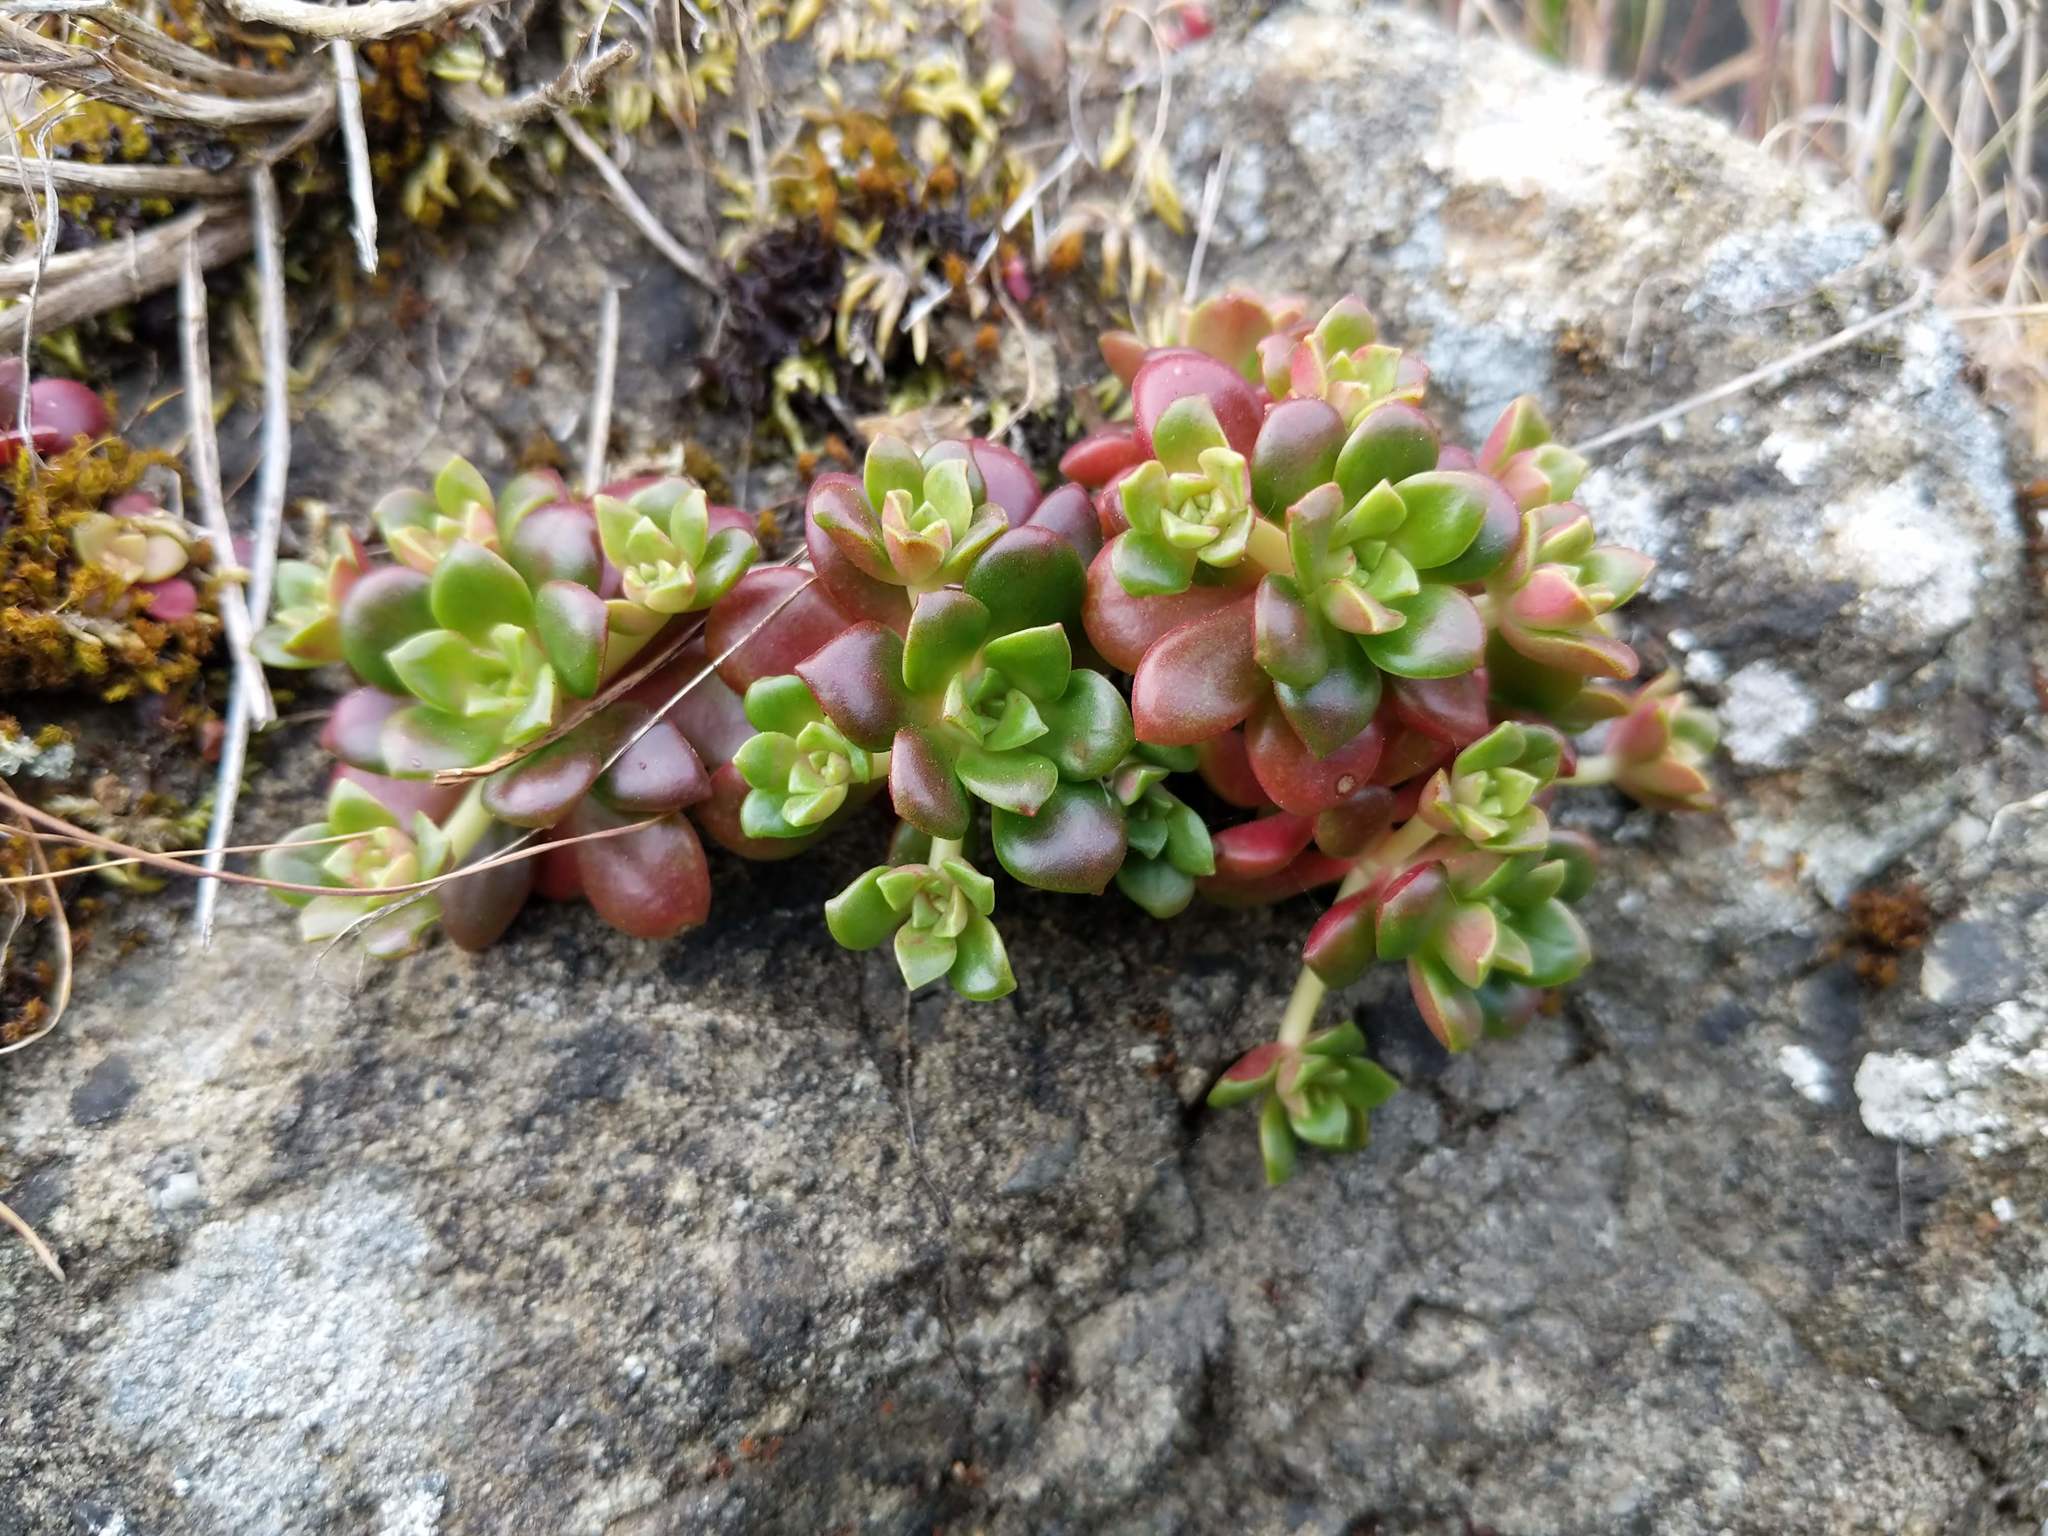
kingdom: Plantae
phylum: Tracheophyta
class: Magnoliopsida
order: Saxifragales
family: Crassulaceae
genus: Sedum
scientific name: Sedum spathulifolium
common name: Colorado stonecrop
